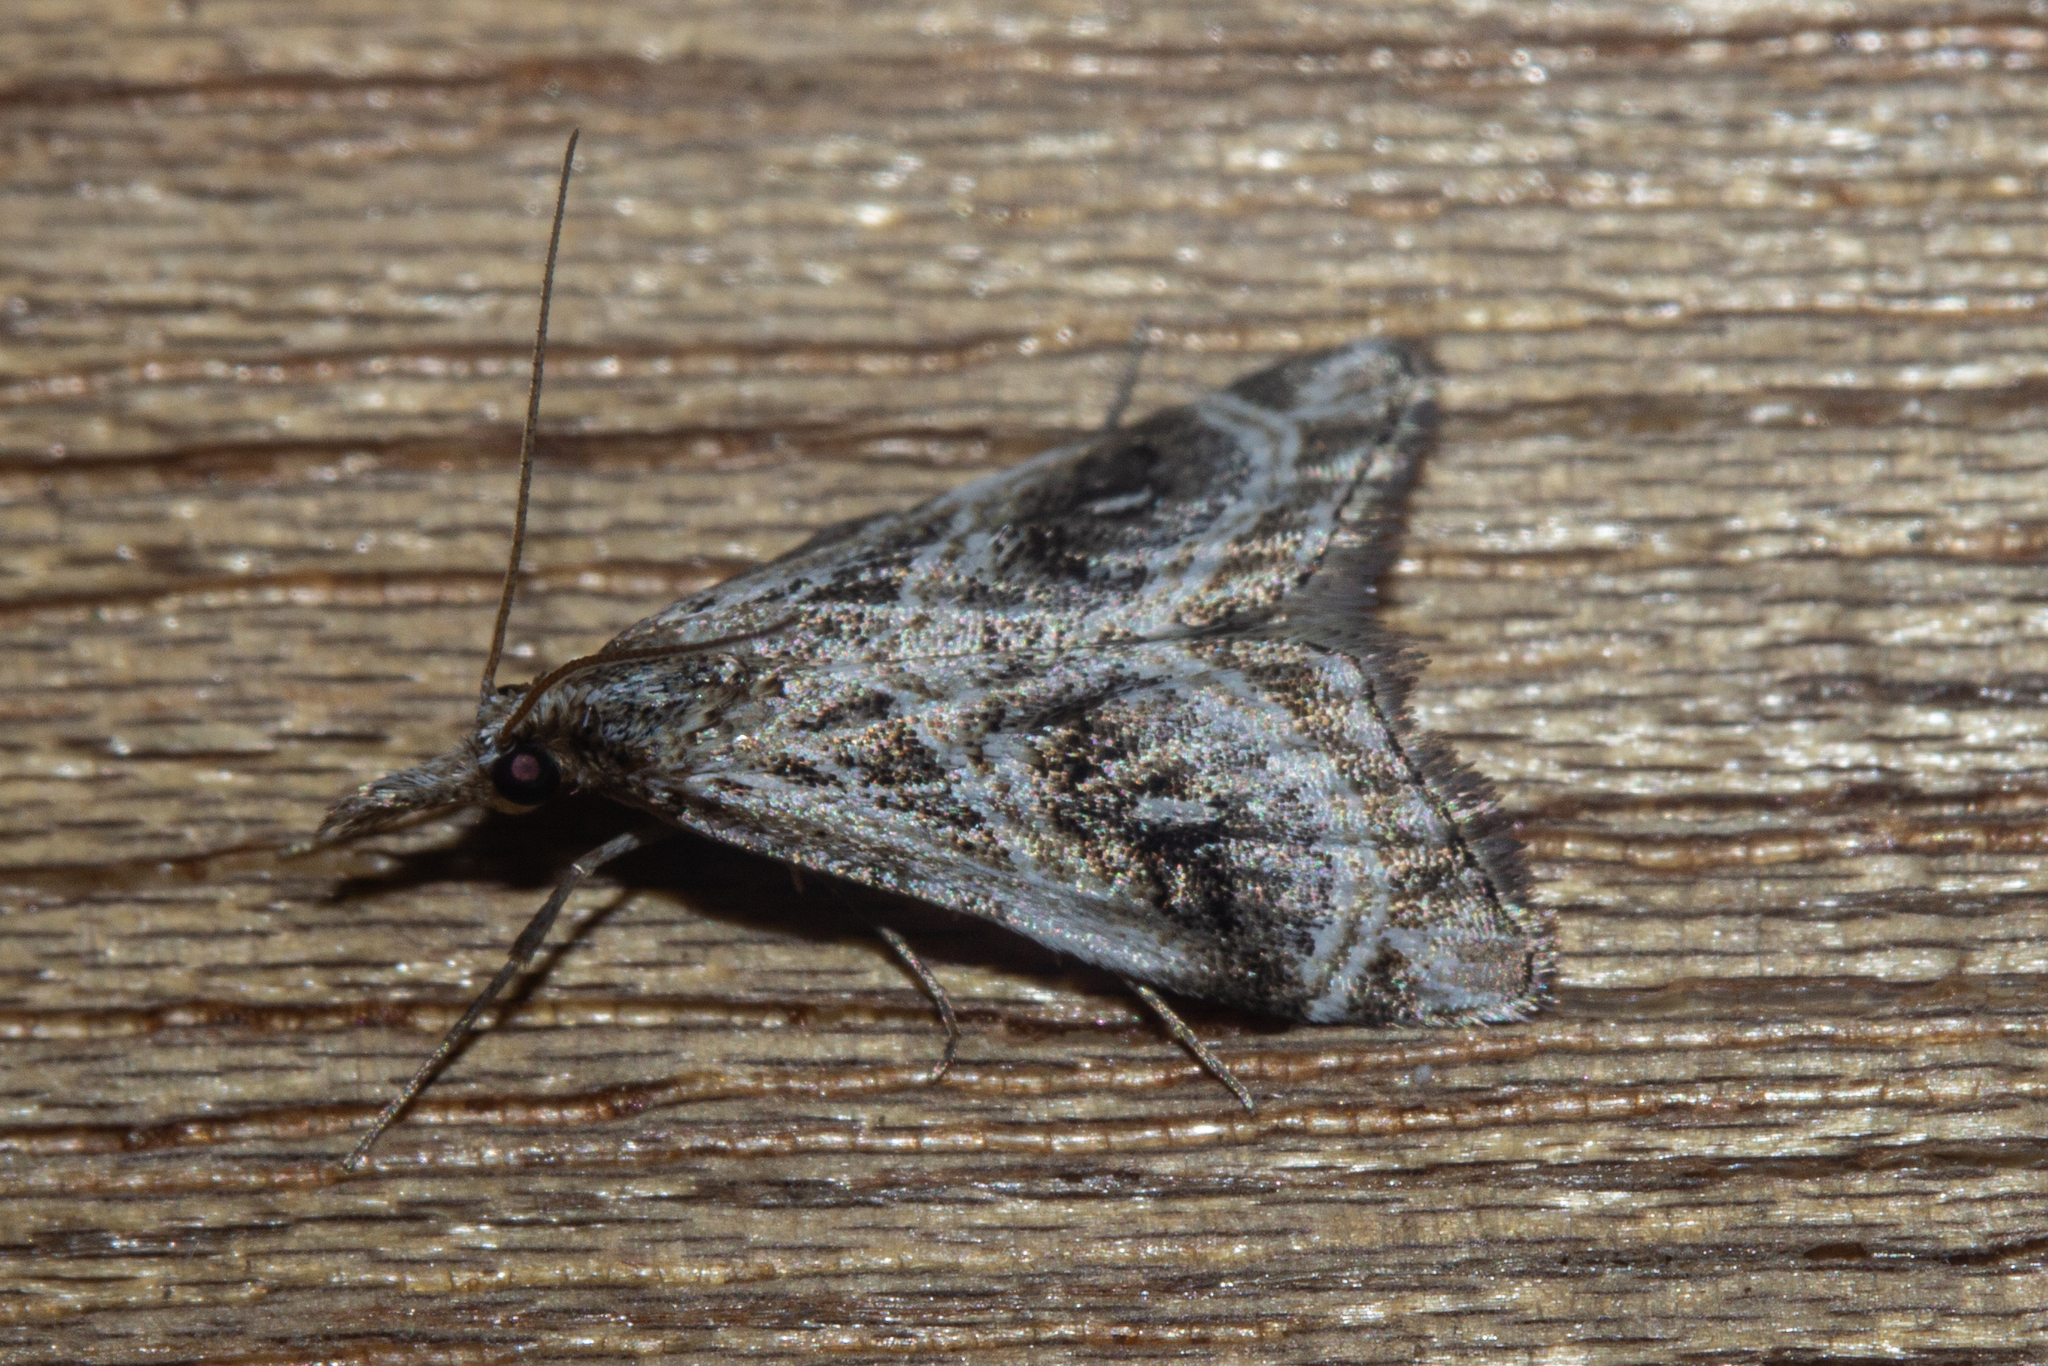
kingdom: Animalia
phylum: Arthropoda
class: Insecta
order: Lepidoptera
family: Crambidae
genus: Gadira
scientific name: Gadira acerella
